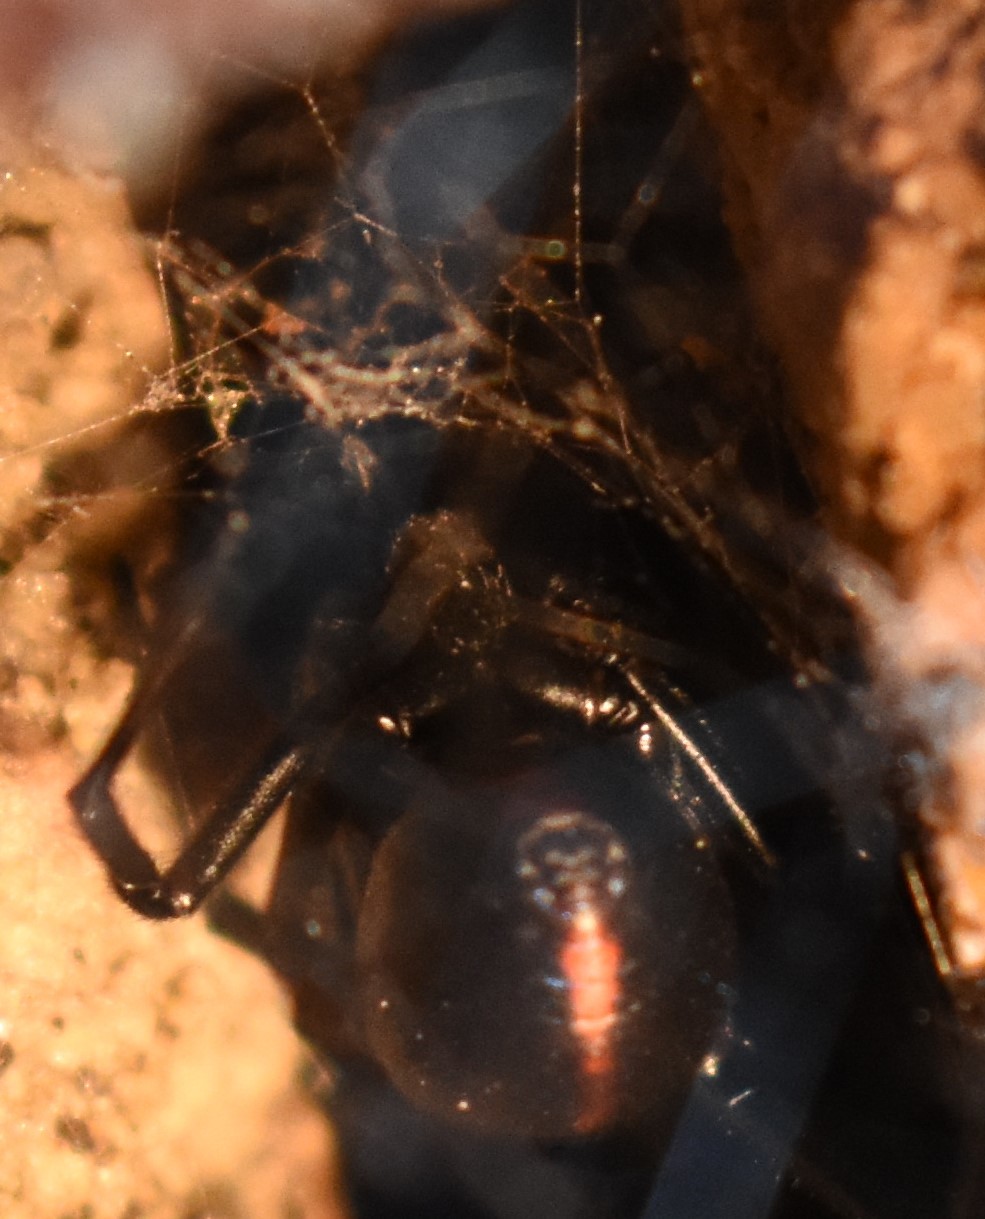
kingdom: Animalia
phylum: Arthropoda
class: Arachnida
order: Araneae
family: Theridiidae
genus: Latrodectus
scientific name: Latrodectus hesperus
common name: Western black widow
